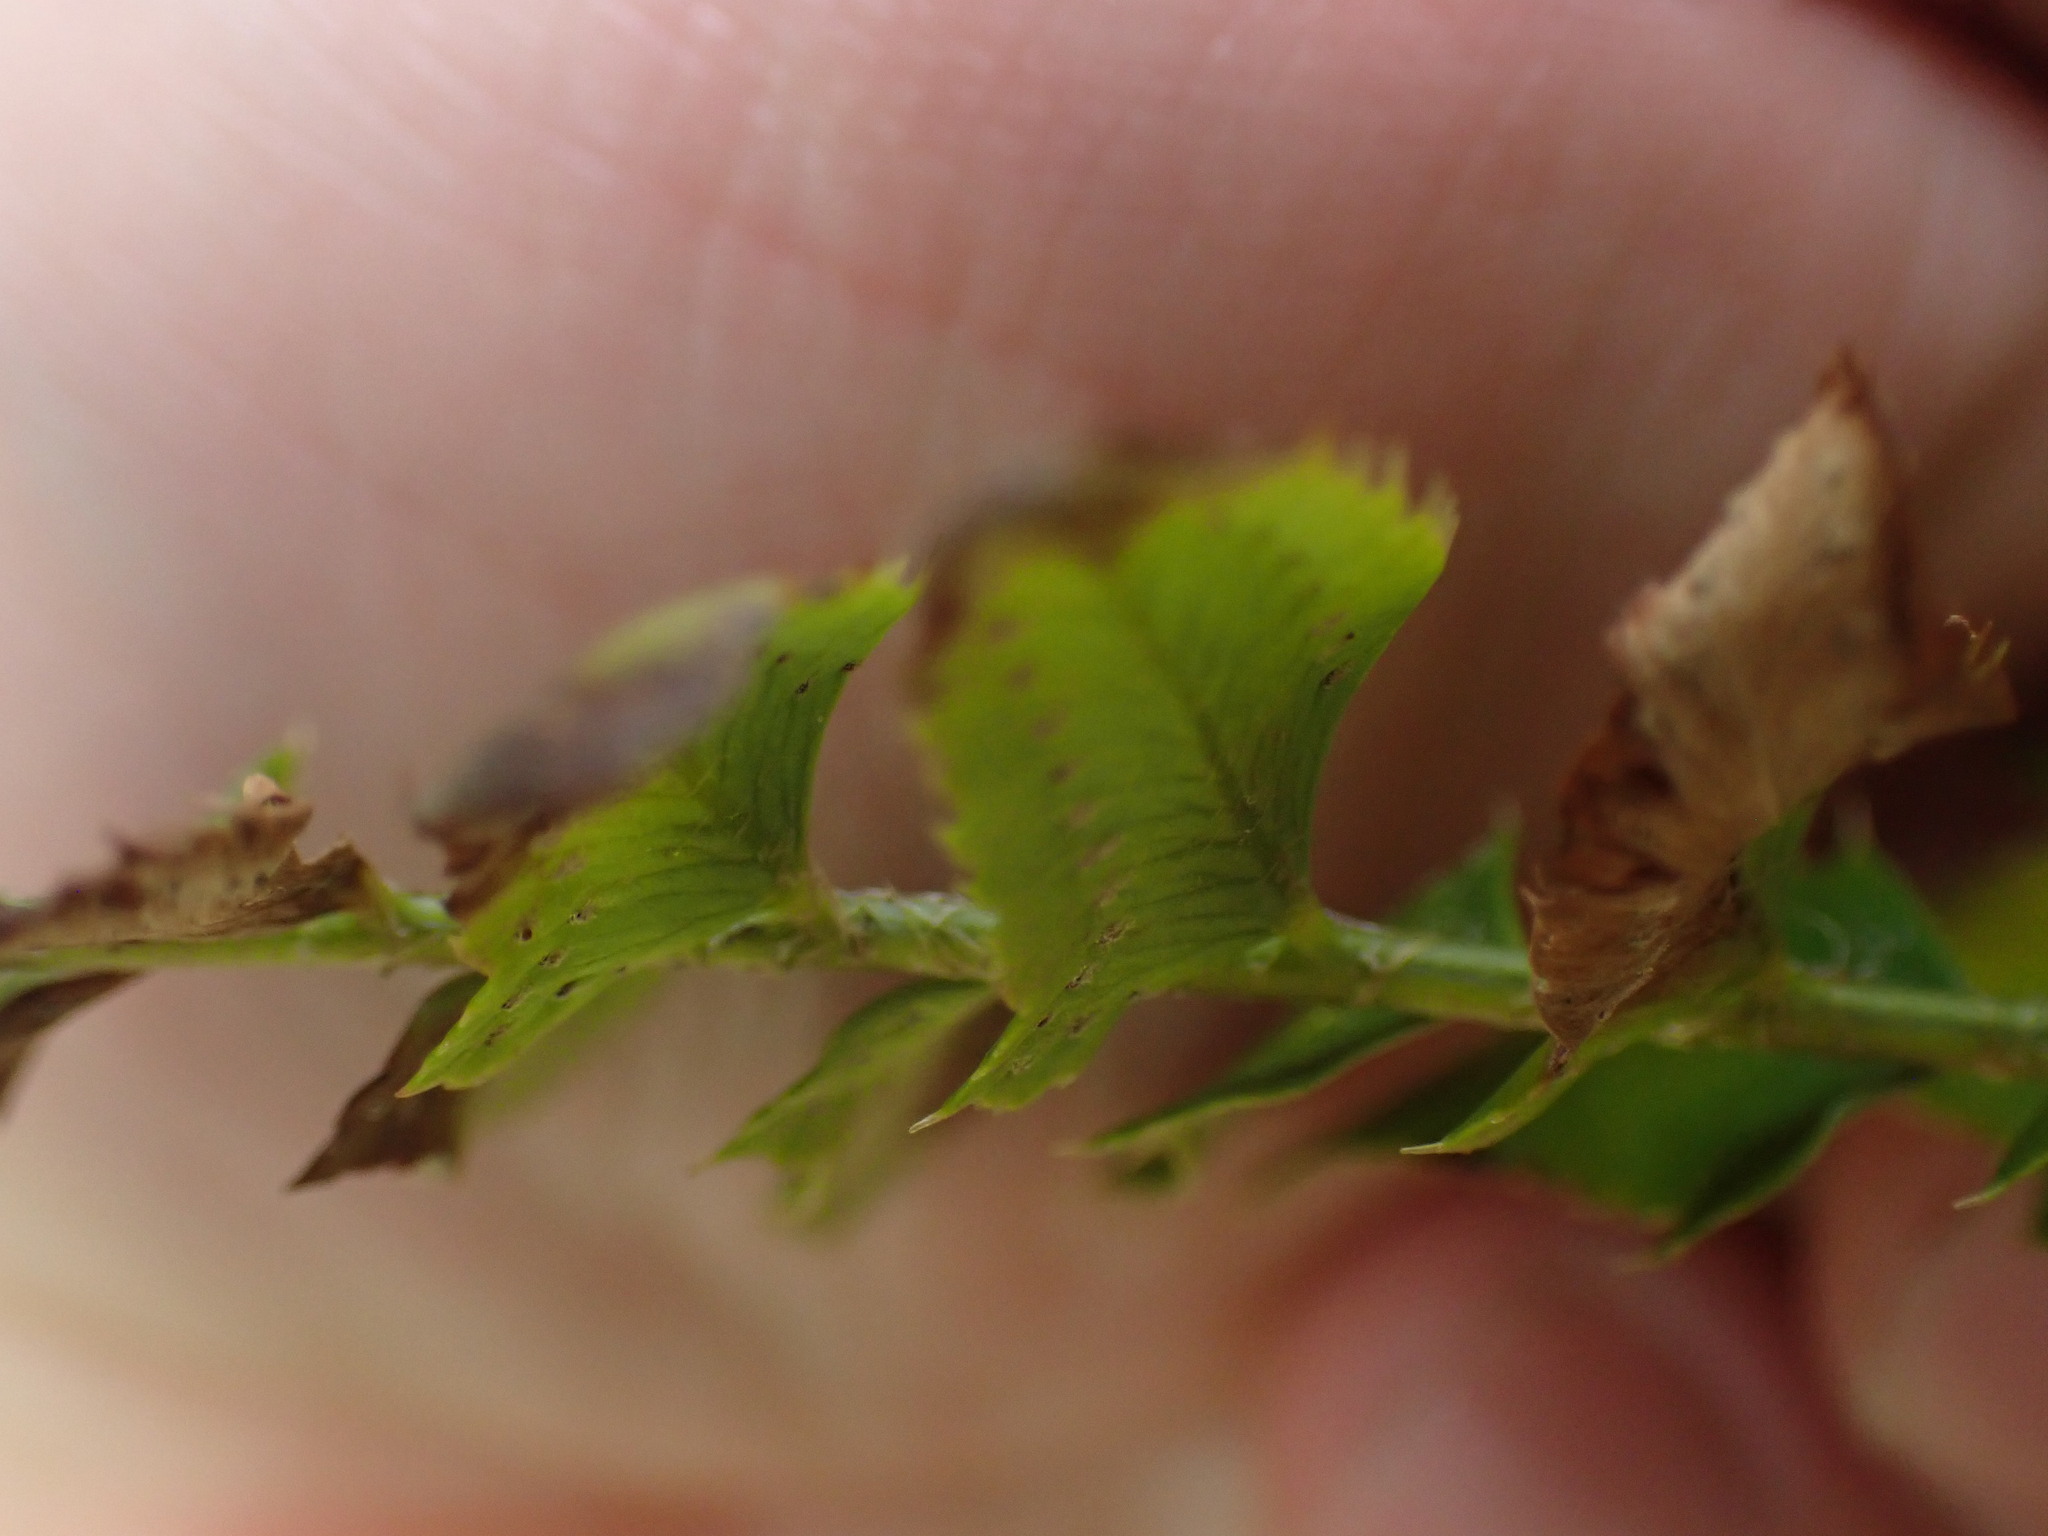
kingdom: Plantae
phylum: Tracheophyta
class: Polypodiopsida
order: Polypodiales
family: Dryopteridaceae
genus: Polystichum
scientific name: Polystichum imbricans
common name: Dwarf western sword fern
